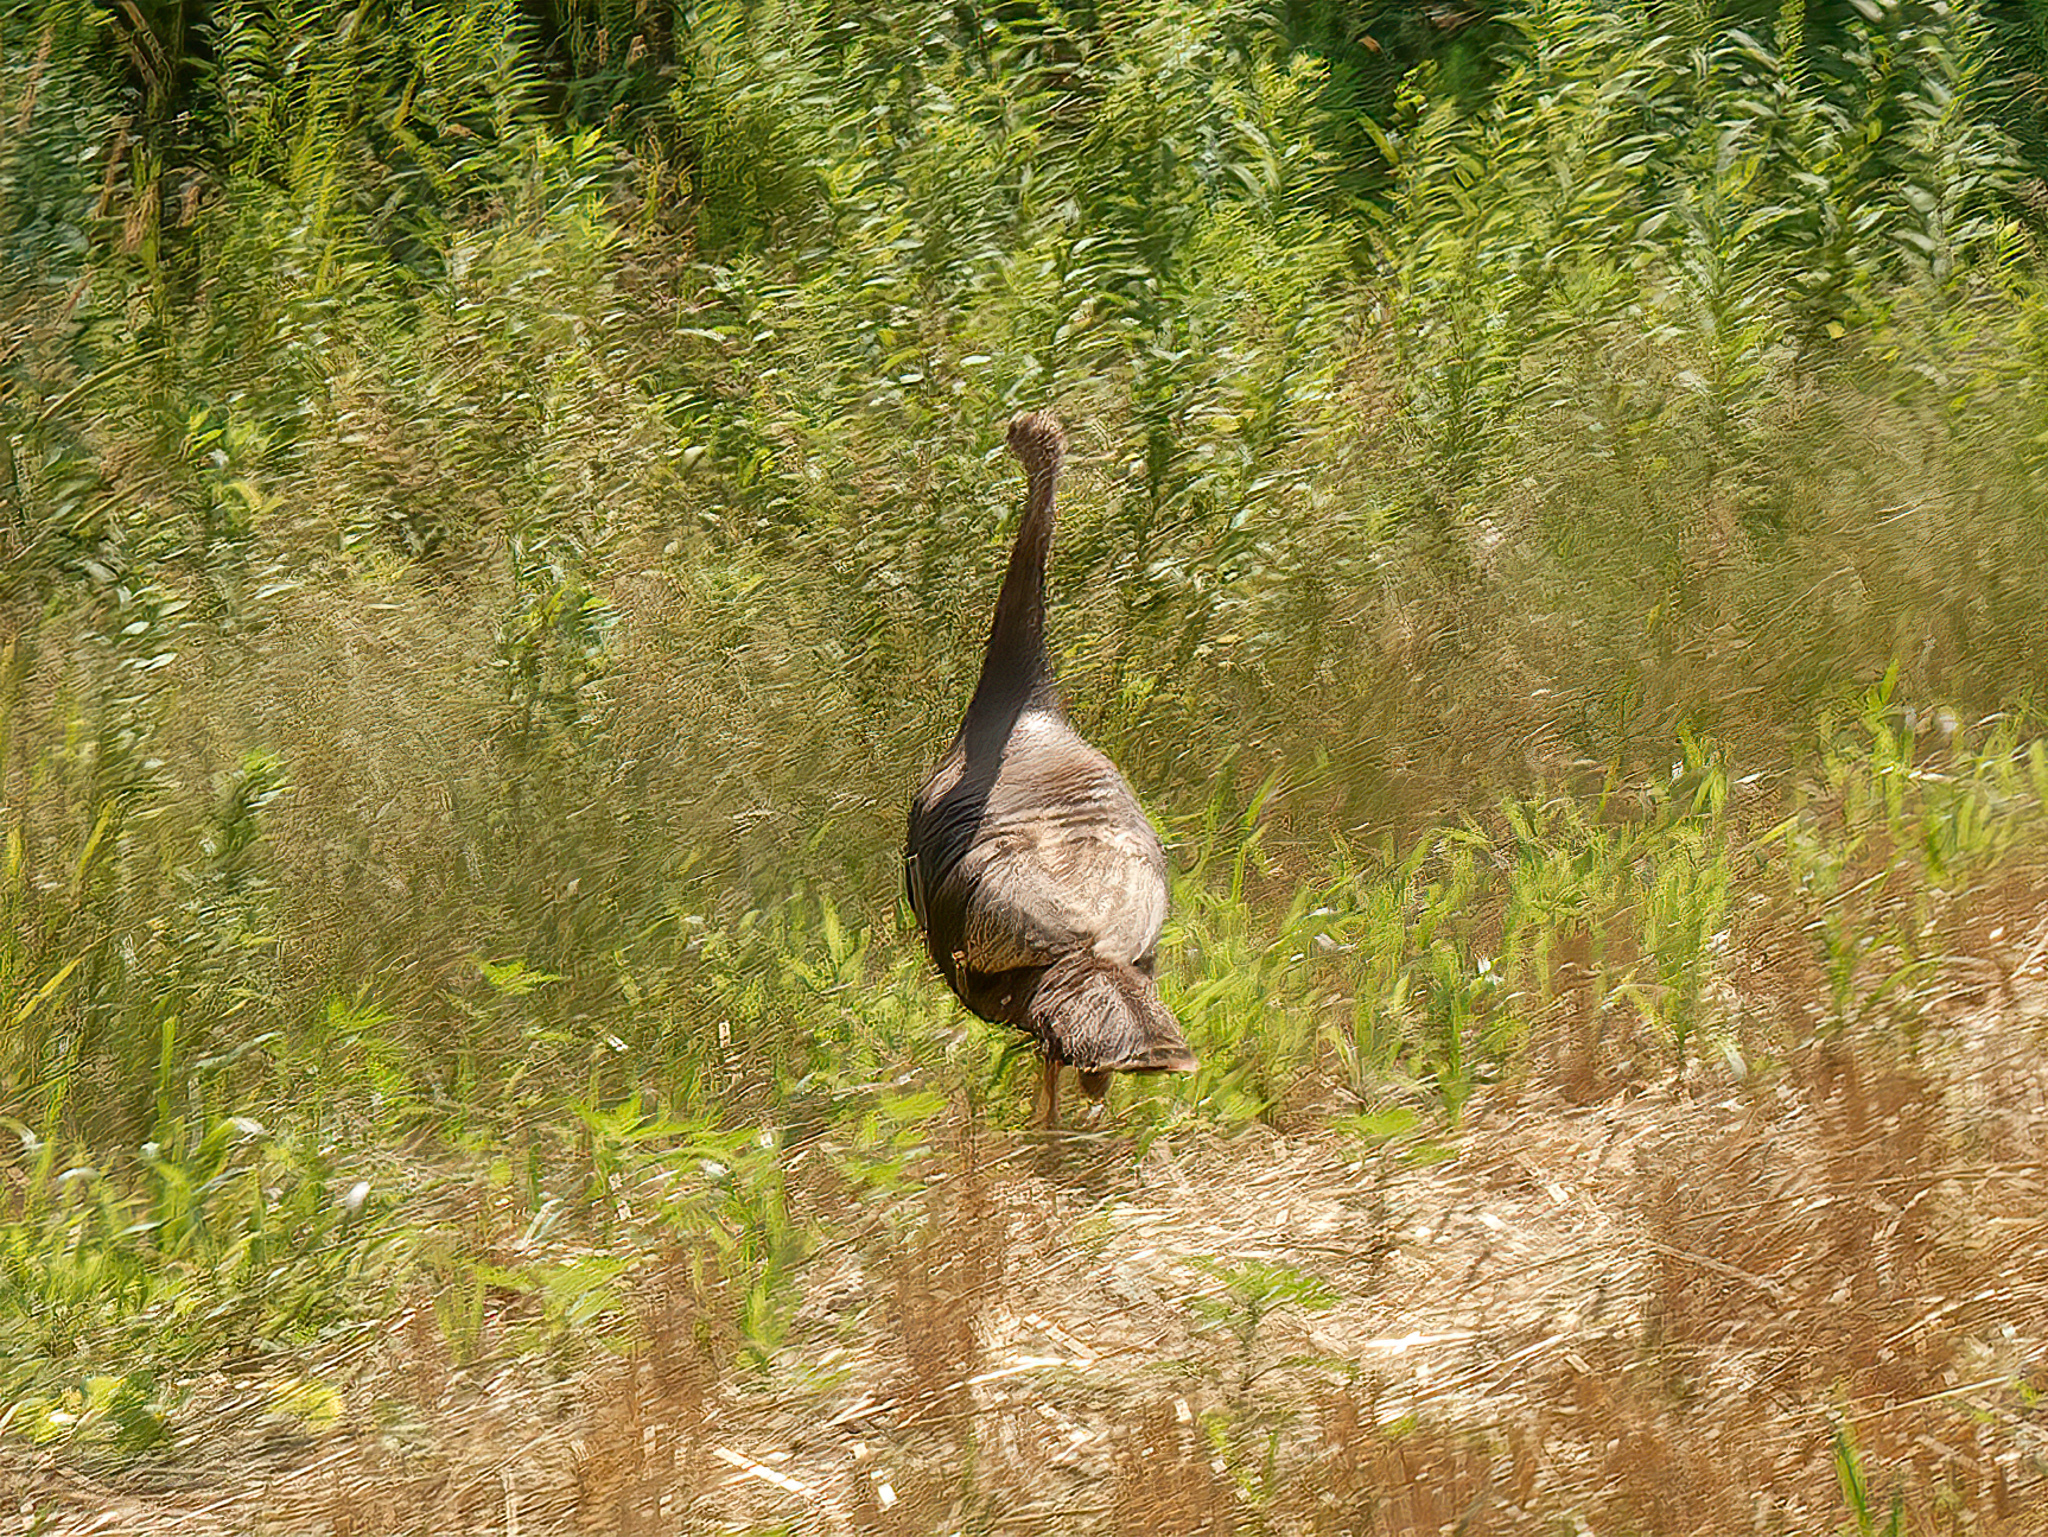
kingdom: Animalia
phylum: Chordata
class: Aves
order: Galliformes
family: Phasianidae
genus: Meleagris
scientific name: Meleagris gallopavo
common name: Wild turkey
